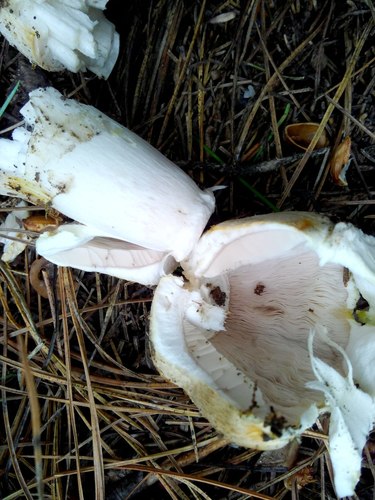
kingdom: Fungi
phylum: Basidiomycota
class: Agaricomycetes
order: Agaricales
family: Agaricaceae
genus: Agaricus
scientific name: Agaricus
